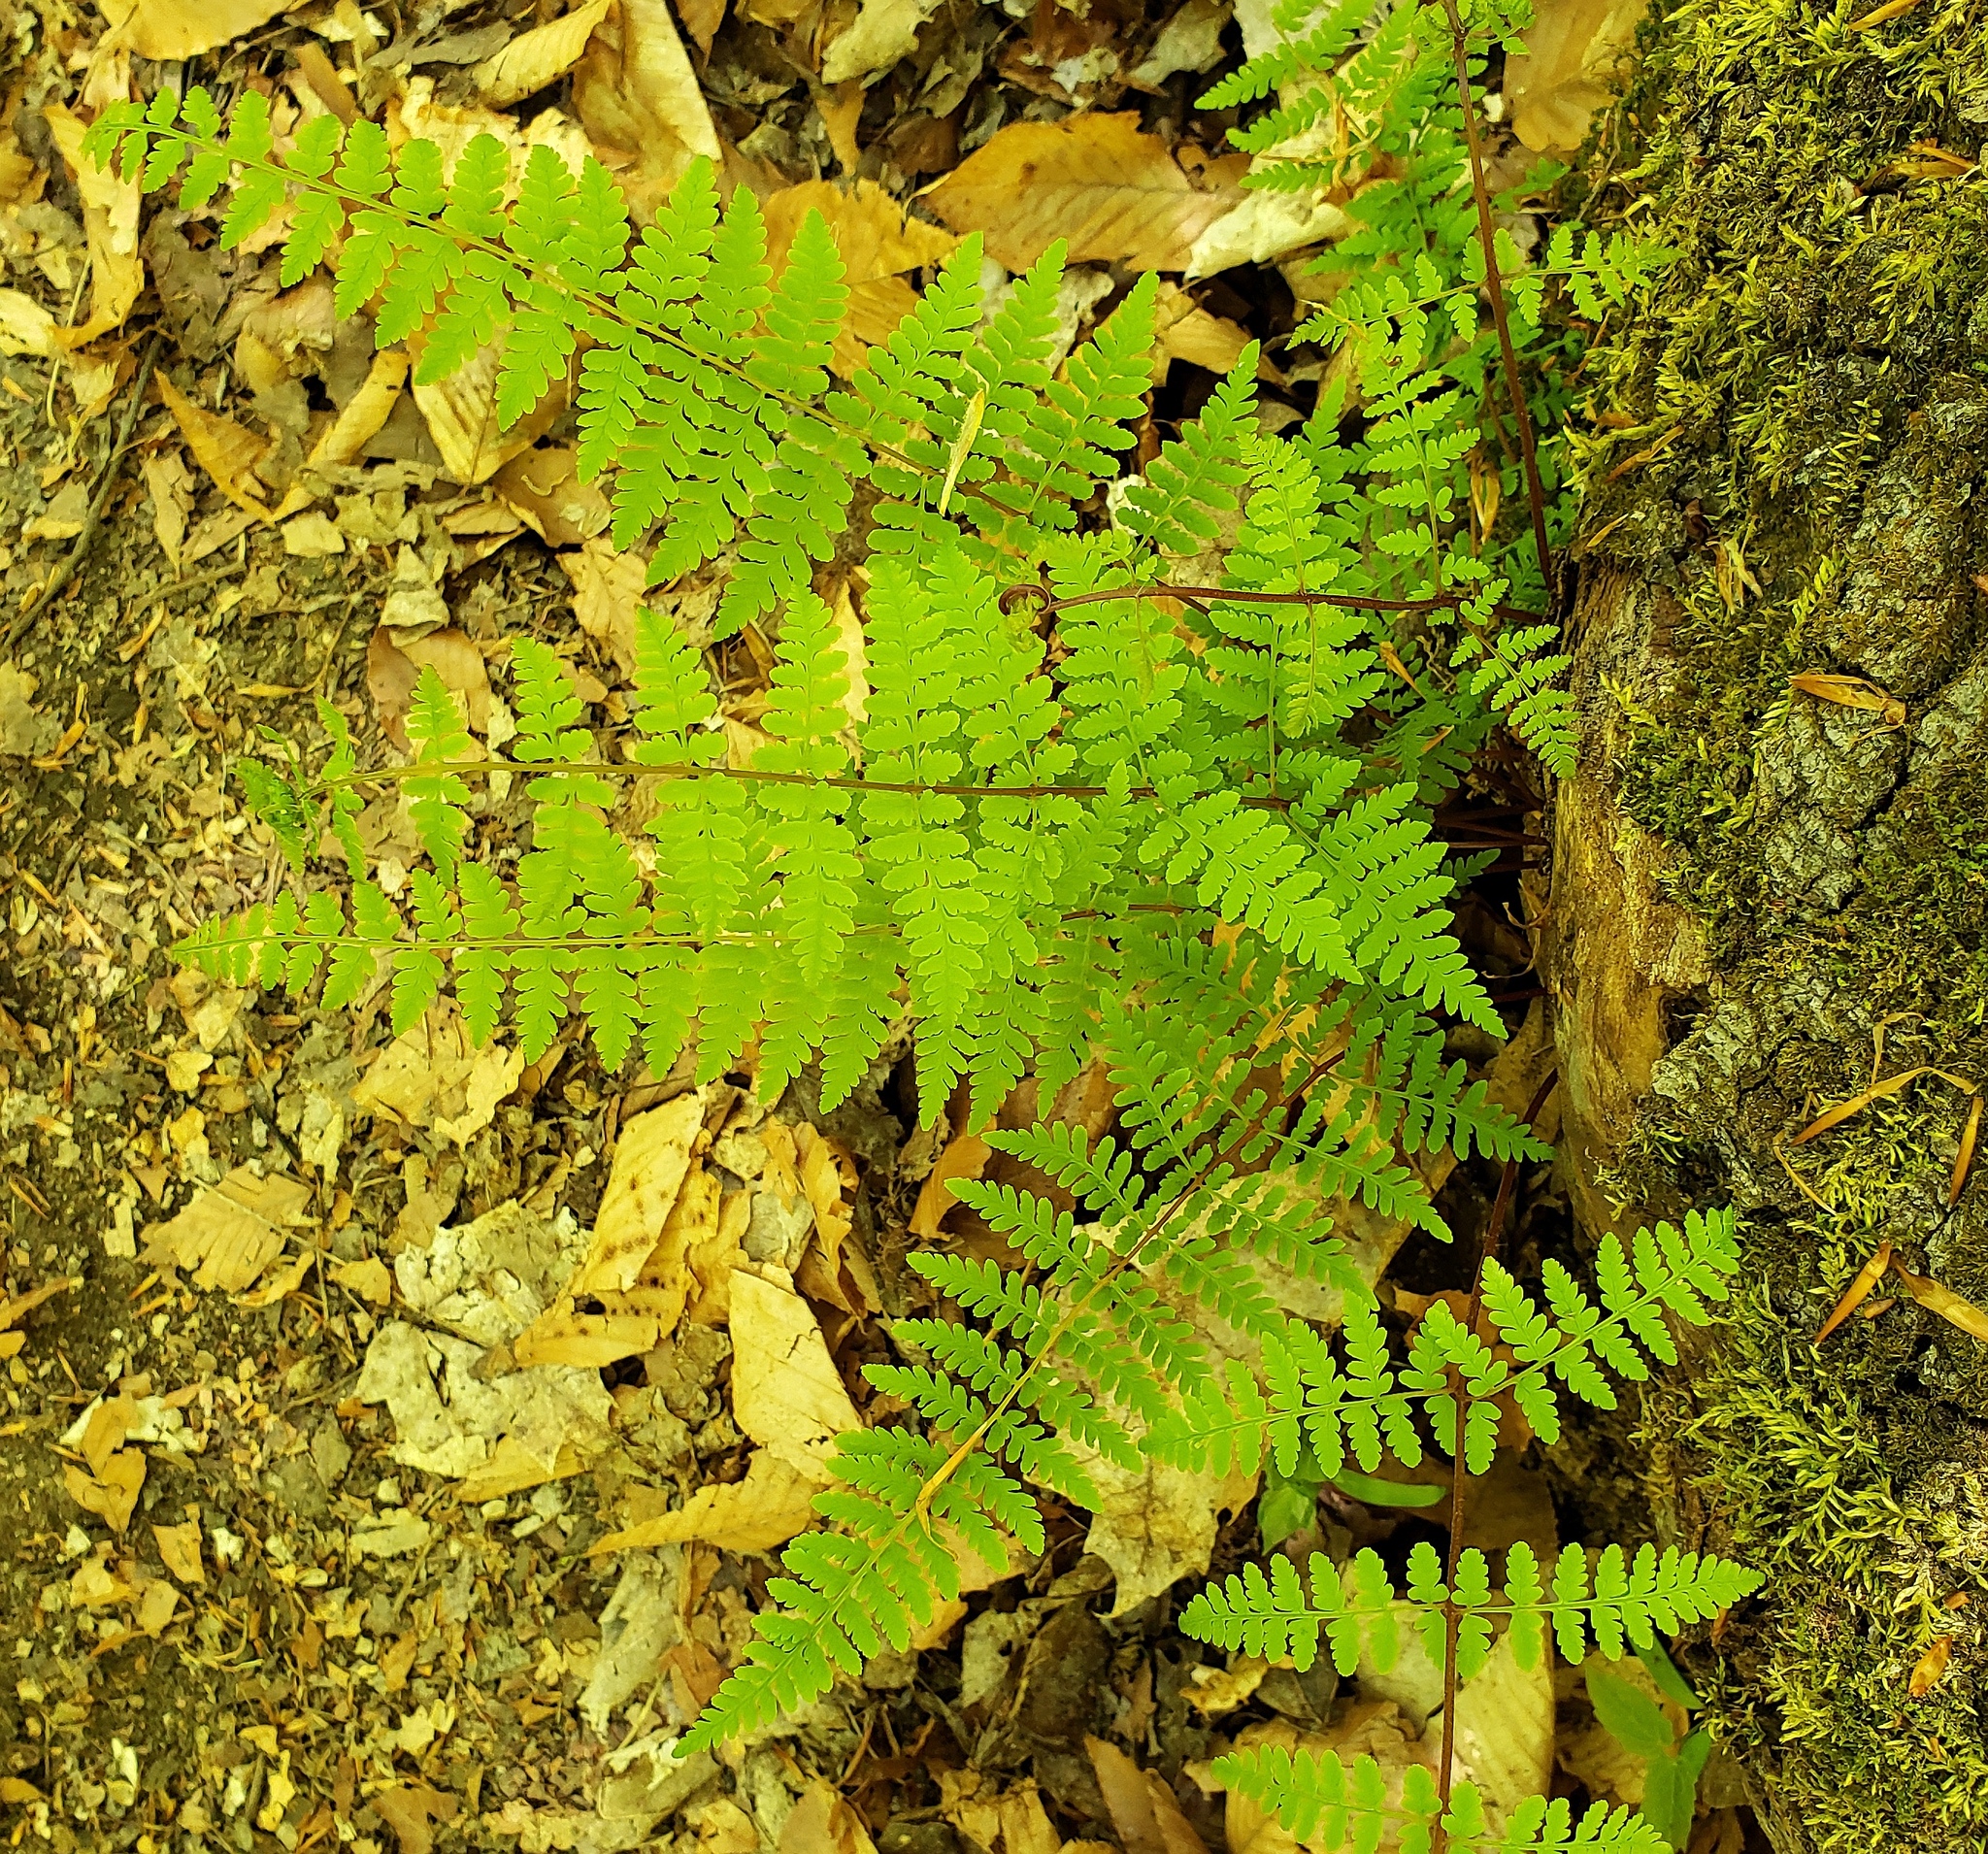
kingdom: Plantae
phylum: Tracheophyta
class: Polypodiopsida
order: Polypodiales
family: Cystopteridaceae
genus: Cystopteris
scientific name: Cystopteris bulbifera
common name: Bulblet bladder fern
